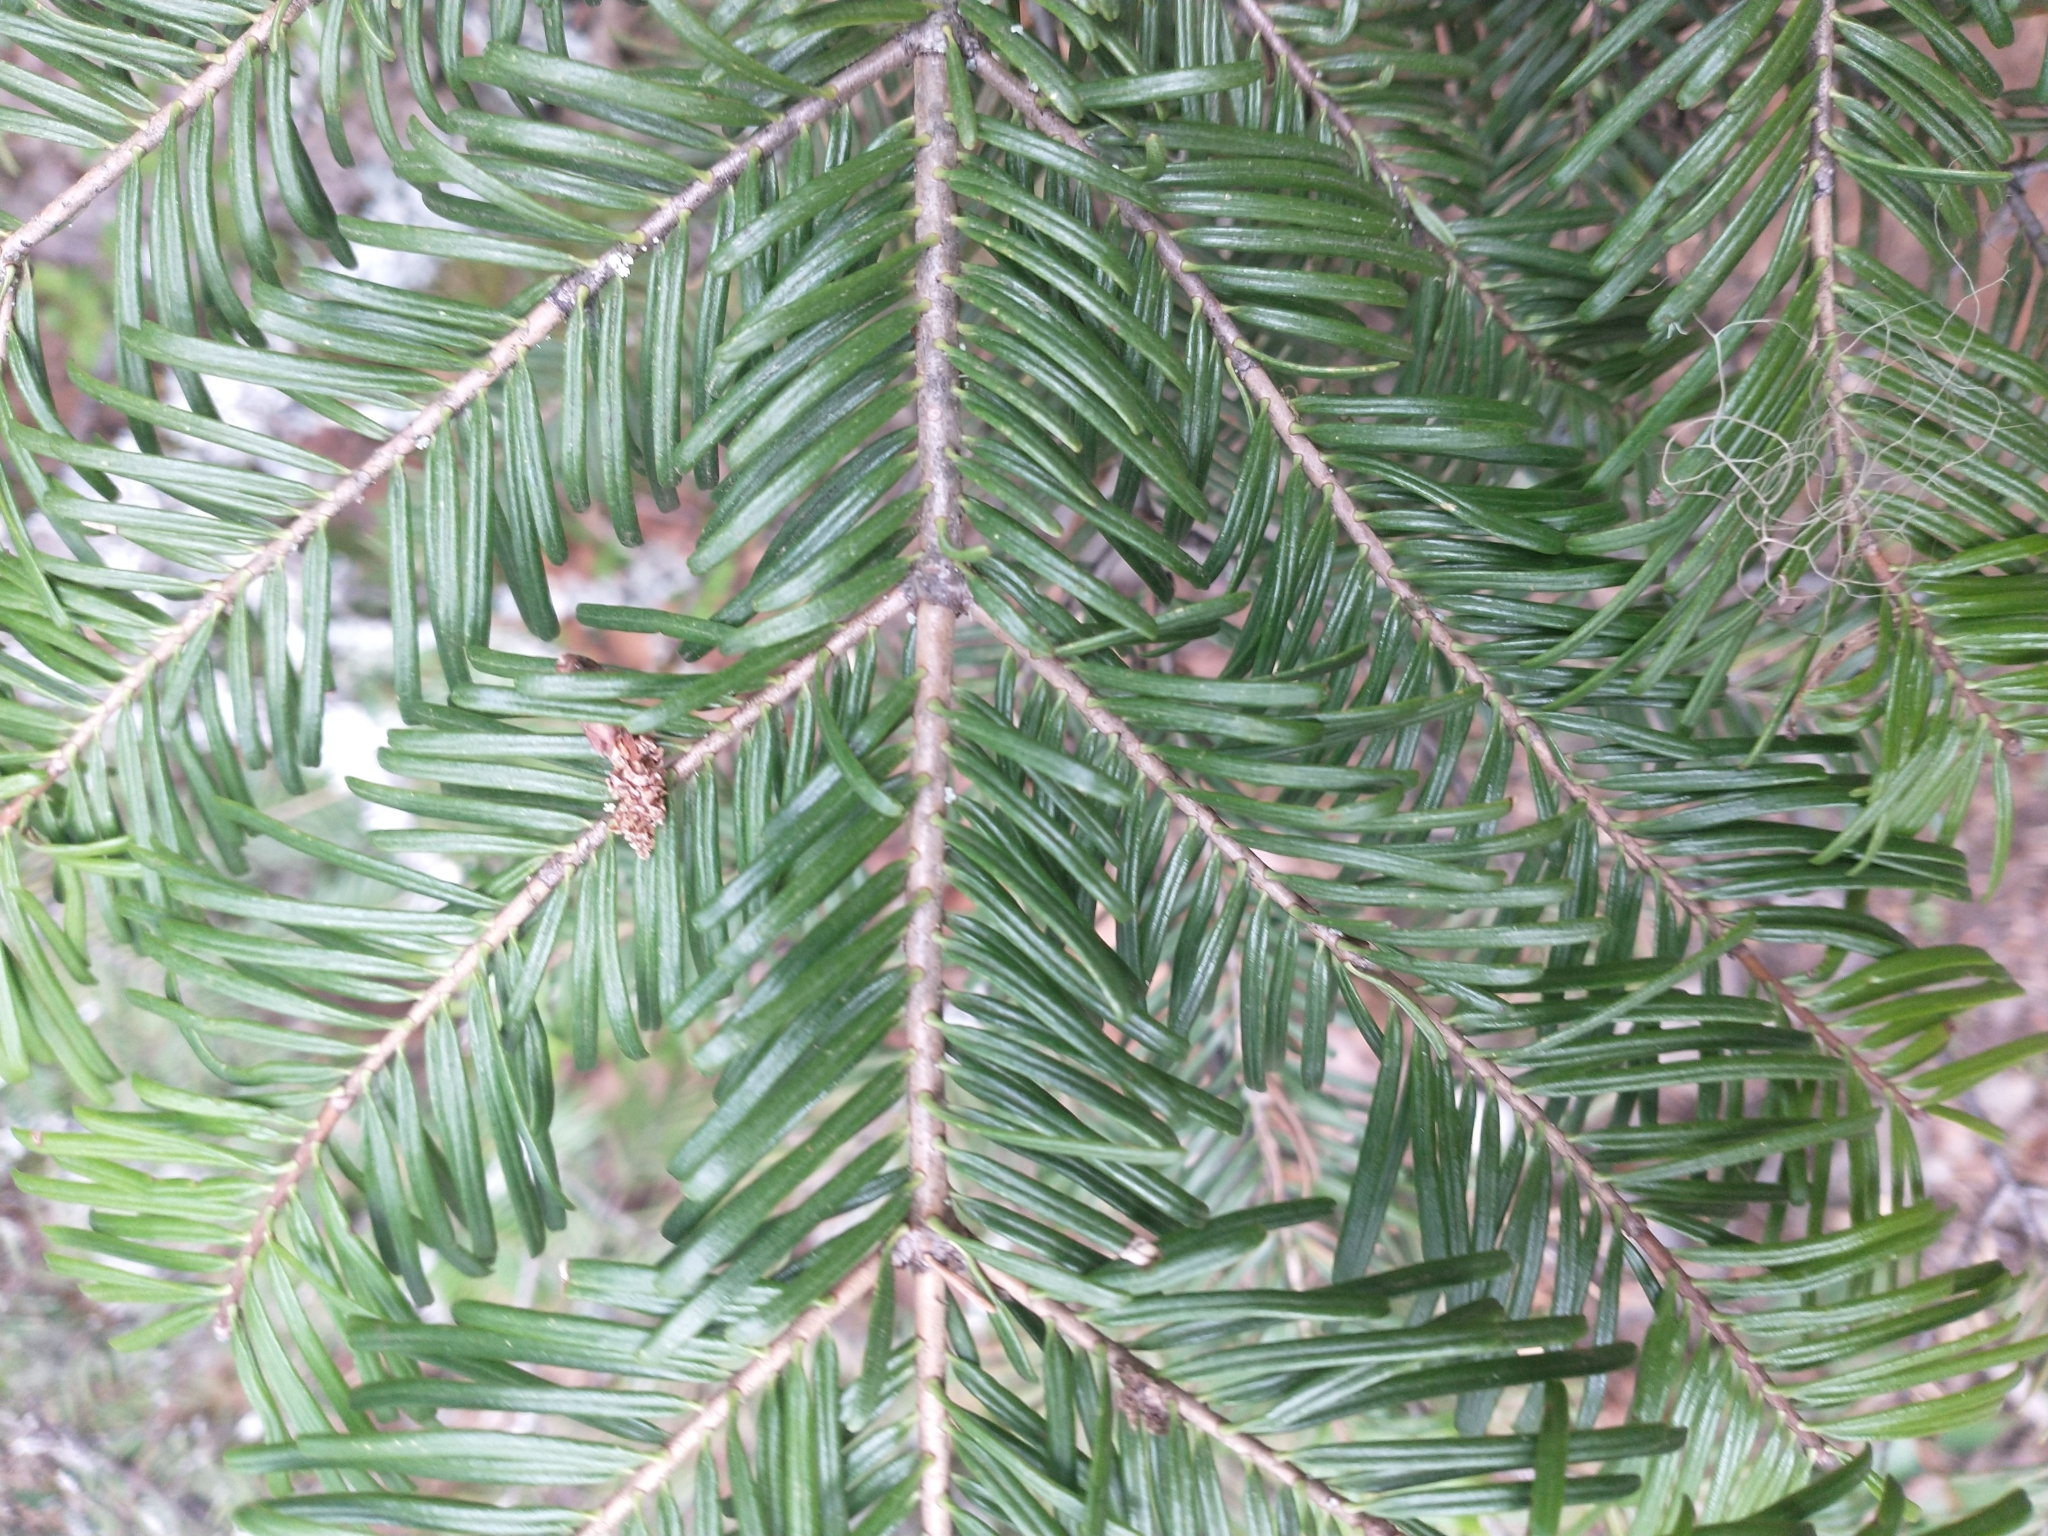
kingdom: Plantae
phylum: Tracheophyta
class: Pinopsida
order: Pinales
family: Pinaceae
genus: Abies
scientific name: Abies grandis
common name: Giant fir
